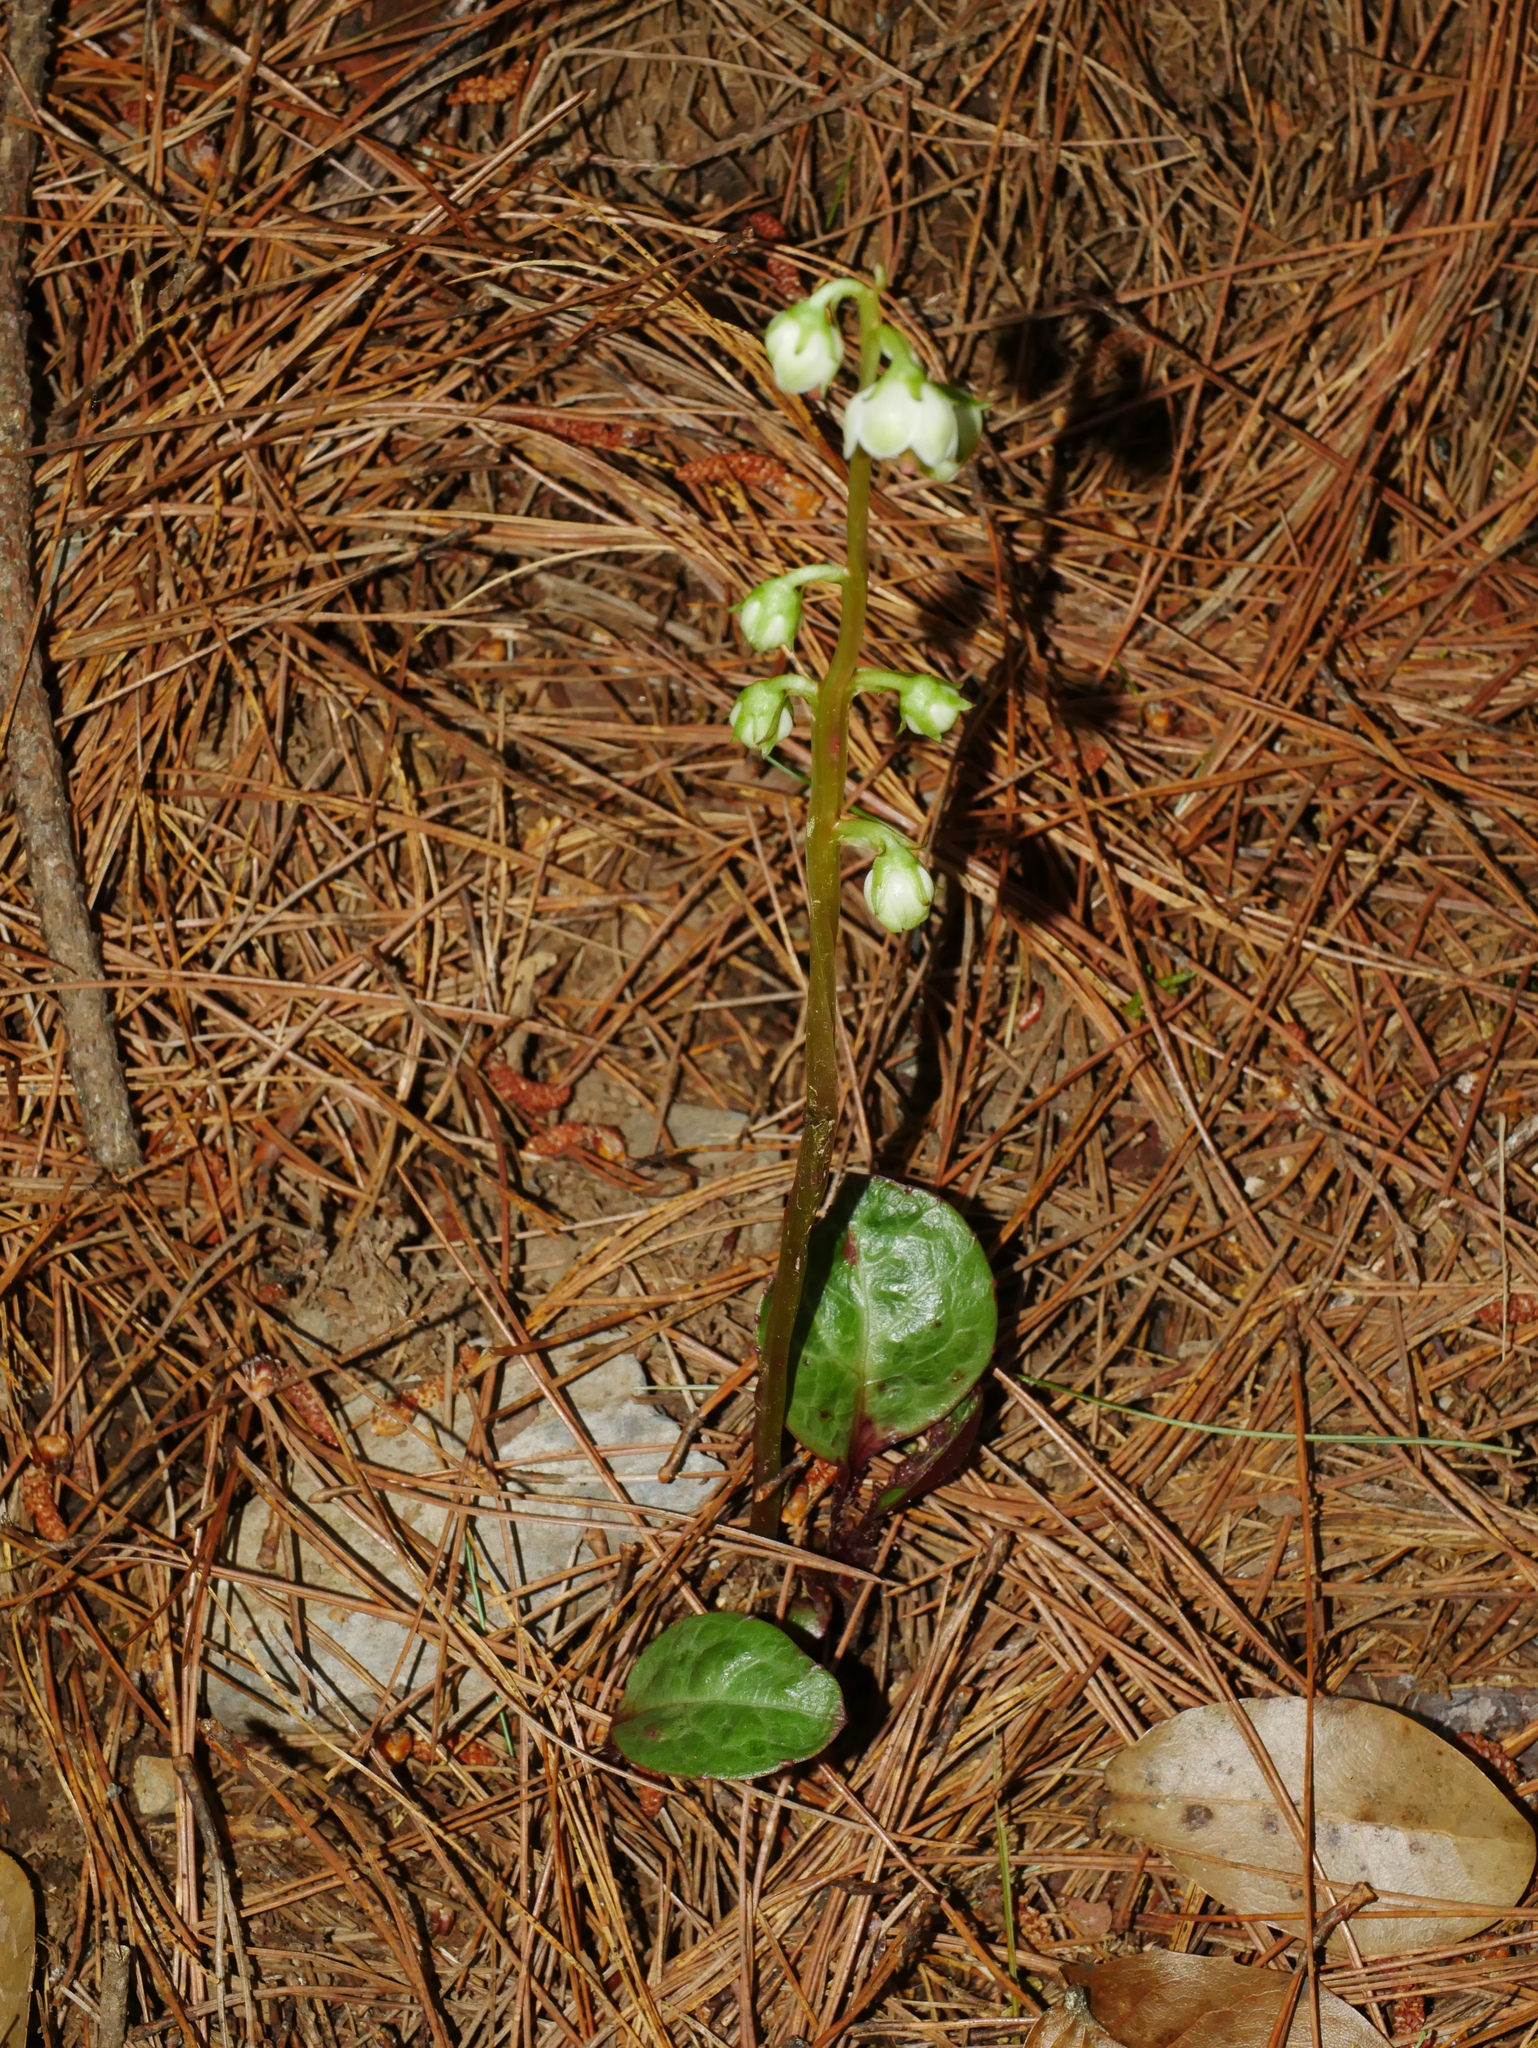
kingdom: Plantae
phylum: Tracheophyta
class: Magnoliopsida
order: Ericales
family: Ericaceae
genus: Pyrola
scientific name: Pyrola japonica
